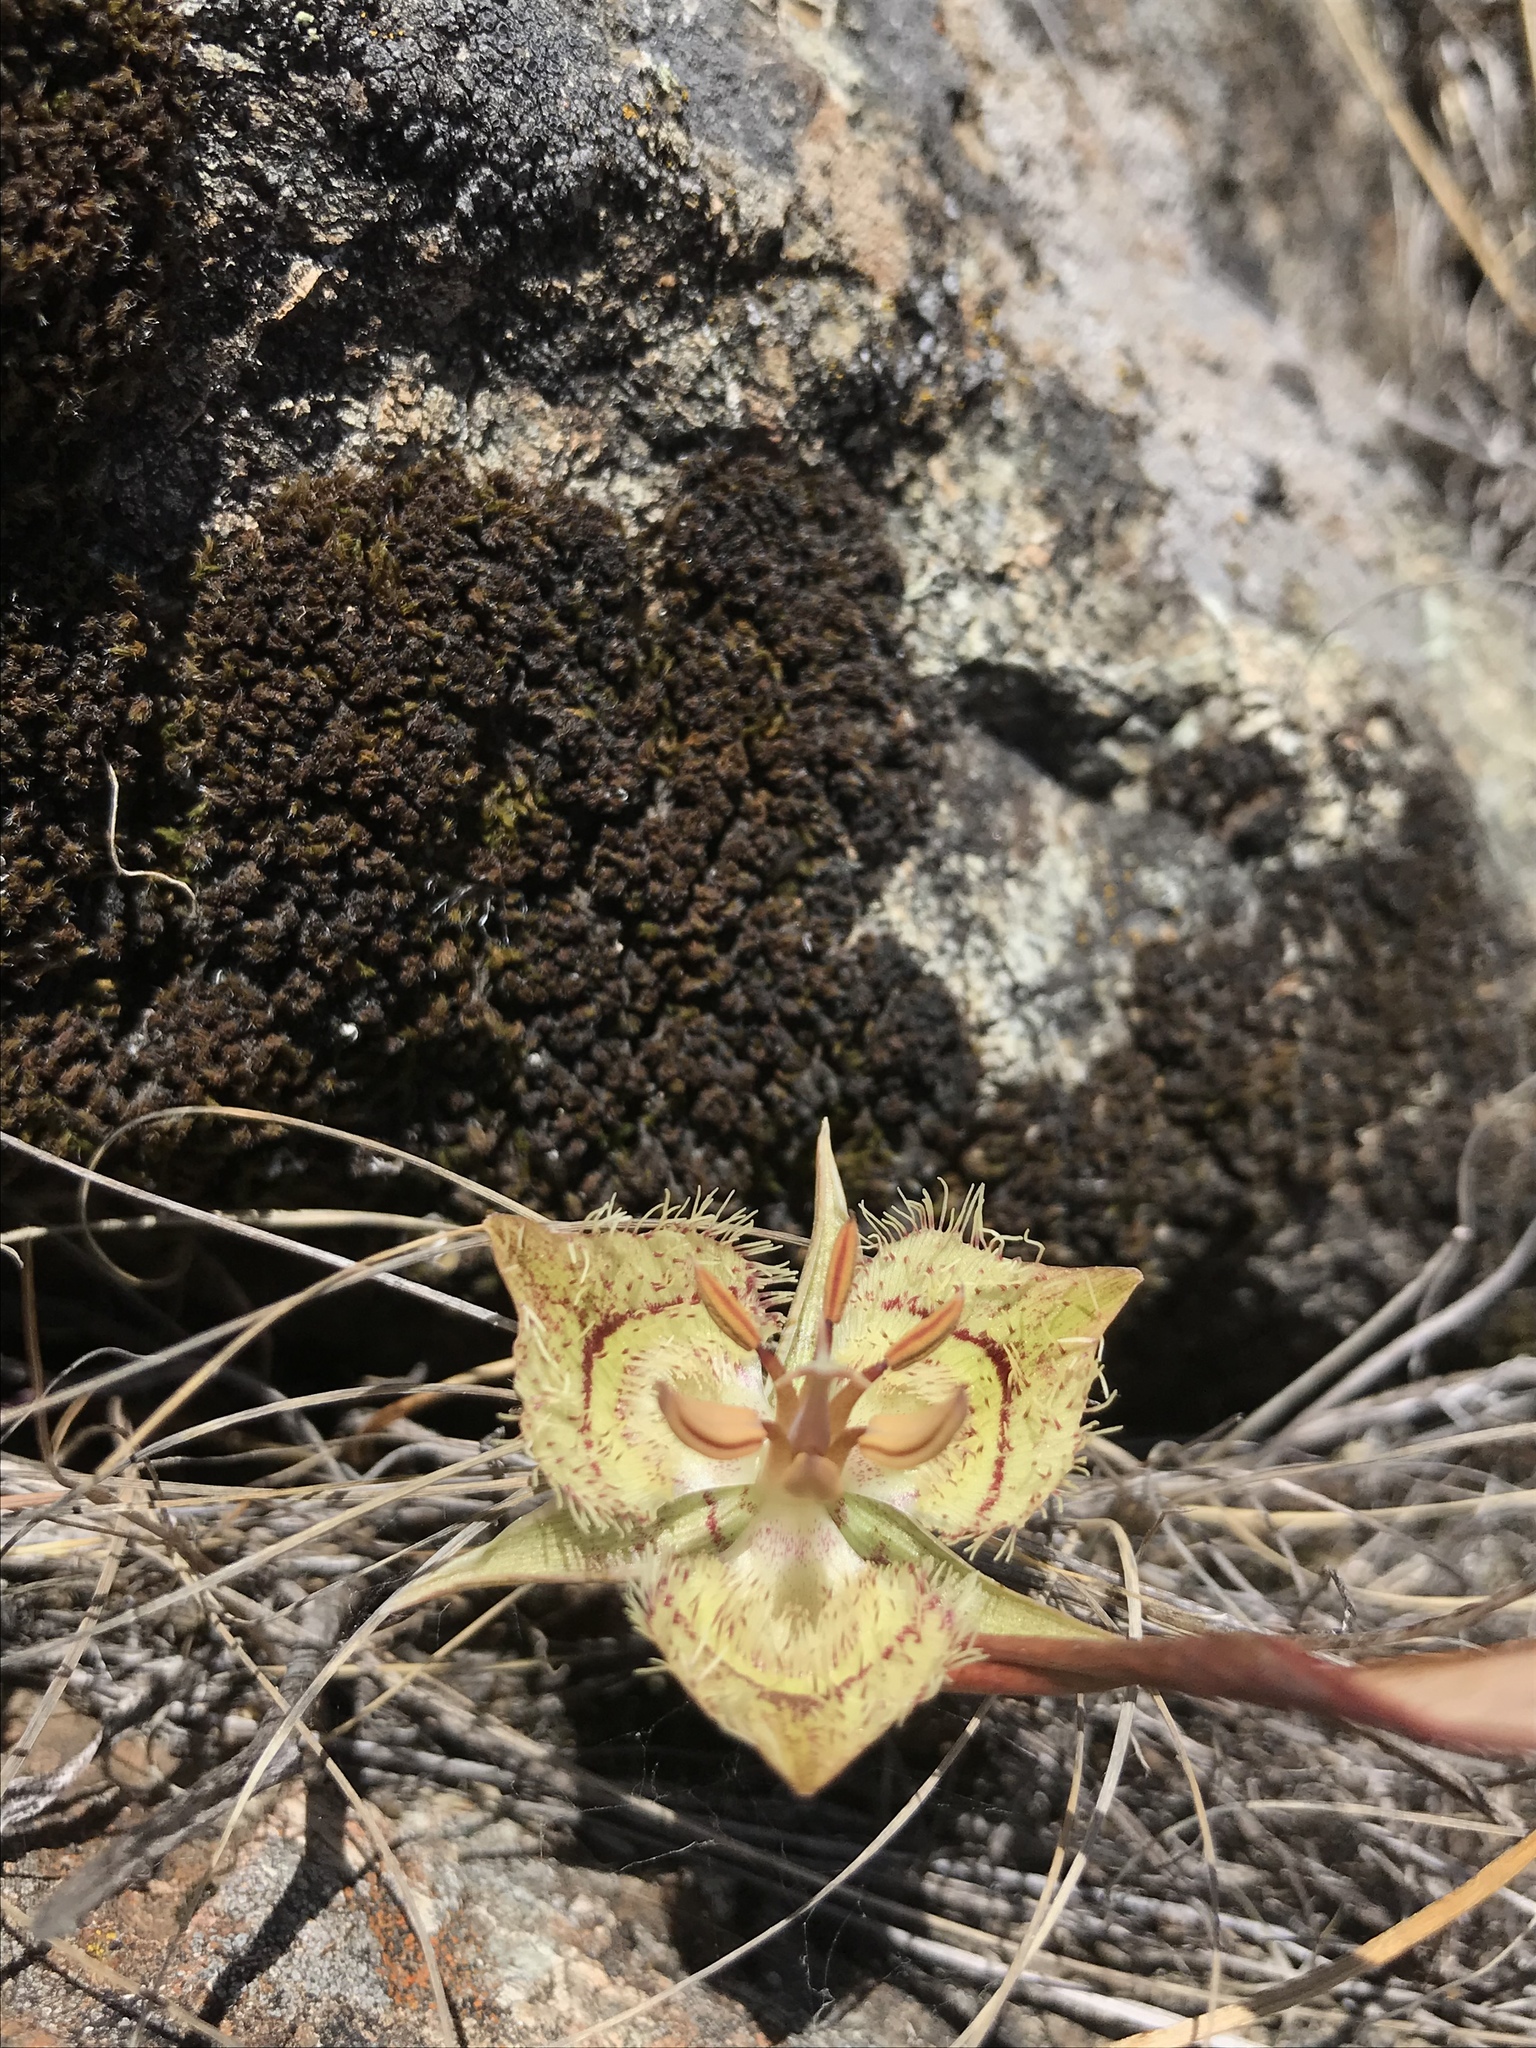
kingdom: Plantae
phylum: Tracheophyta
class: Liliopsida
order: Liliales
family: Liliaceae
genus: Calochortus
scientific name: Calochortus tiburonensis
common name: Tiburon mariposa-lily
